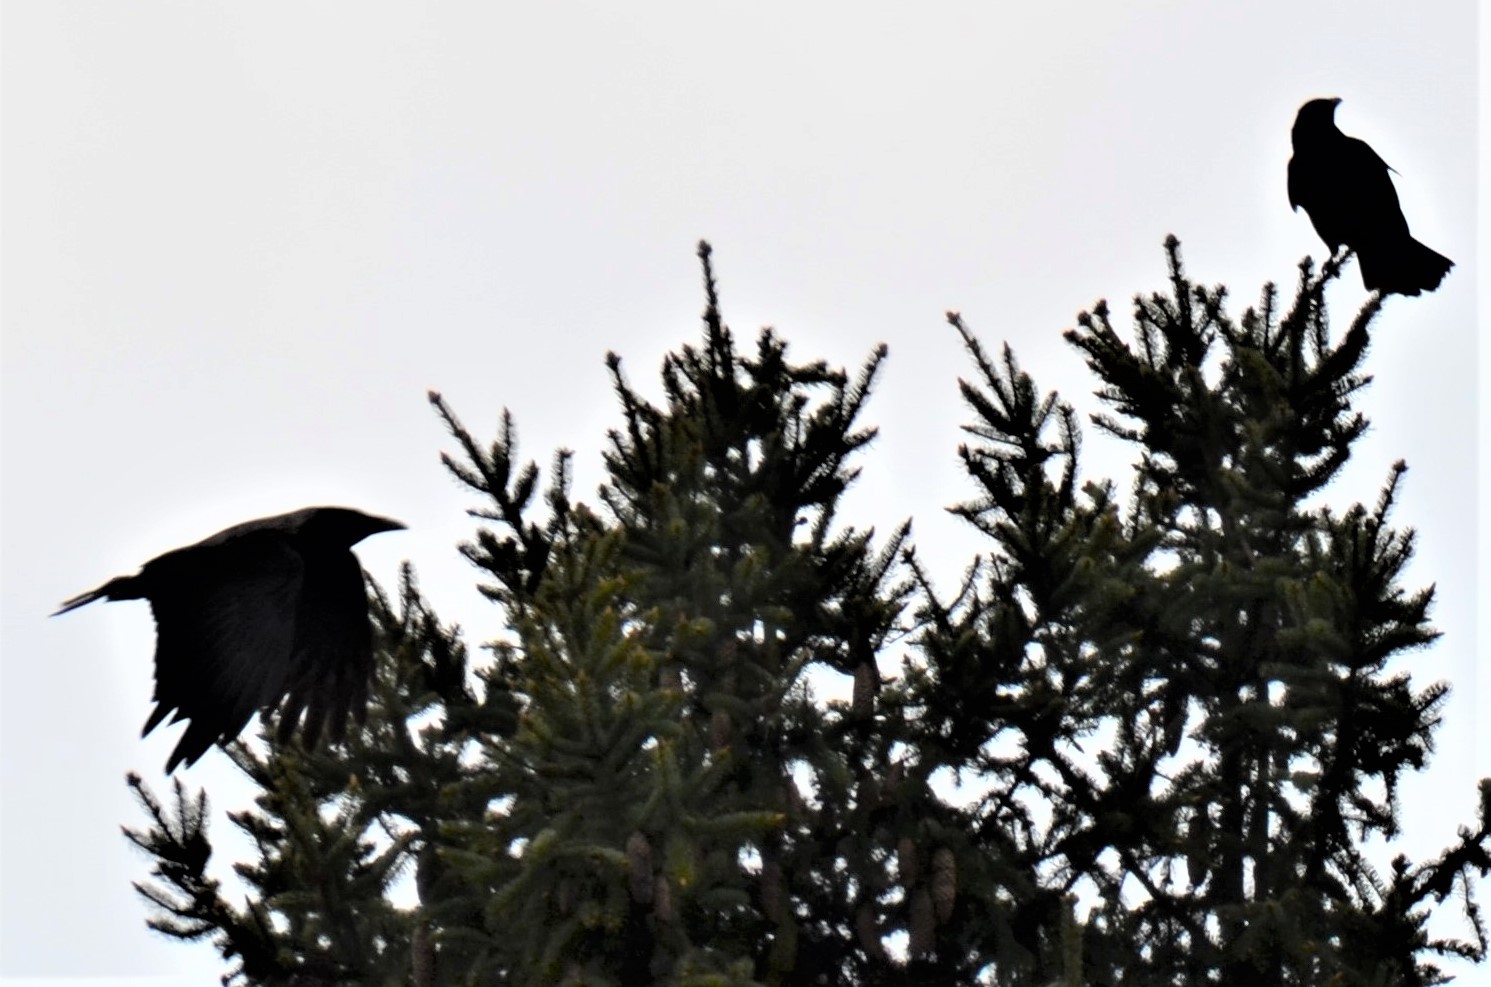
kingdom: Animalia
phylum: Chordata
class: Aves
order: Passeriformes
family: Corvidae
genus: Corvus
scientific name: Corvus corone
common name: Carrion crow
